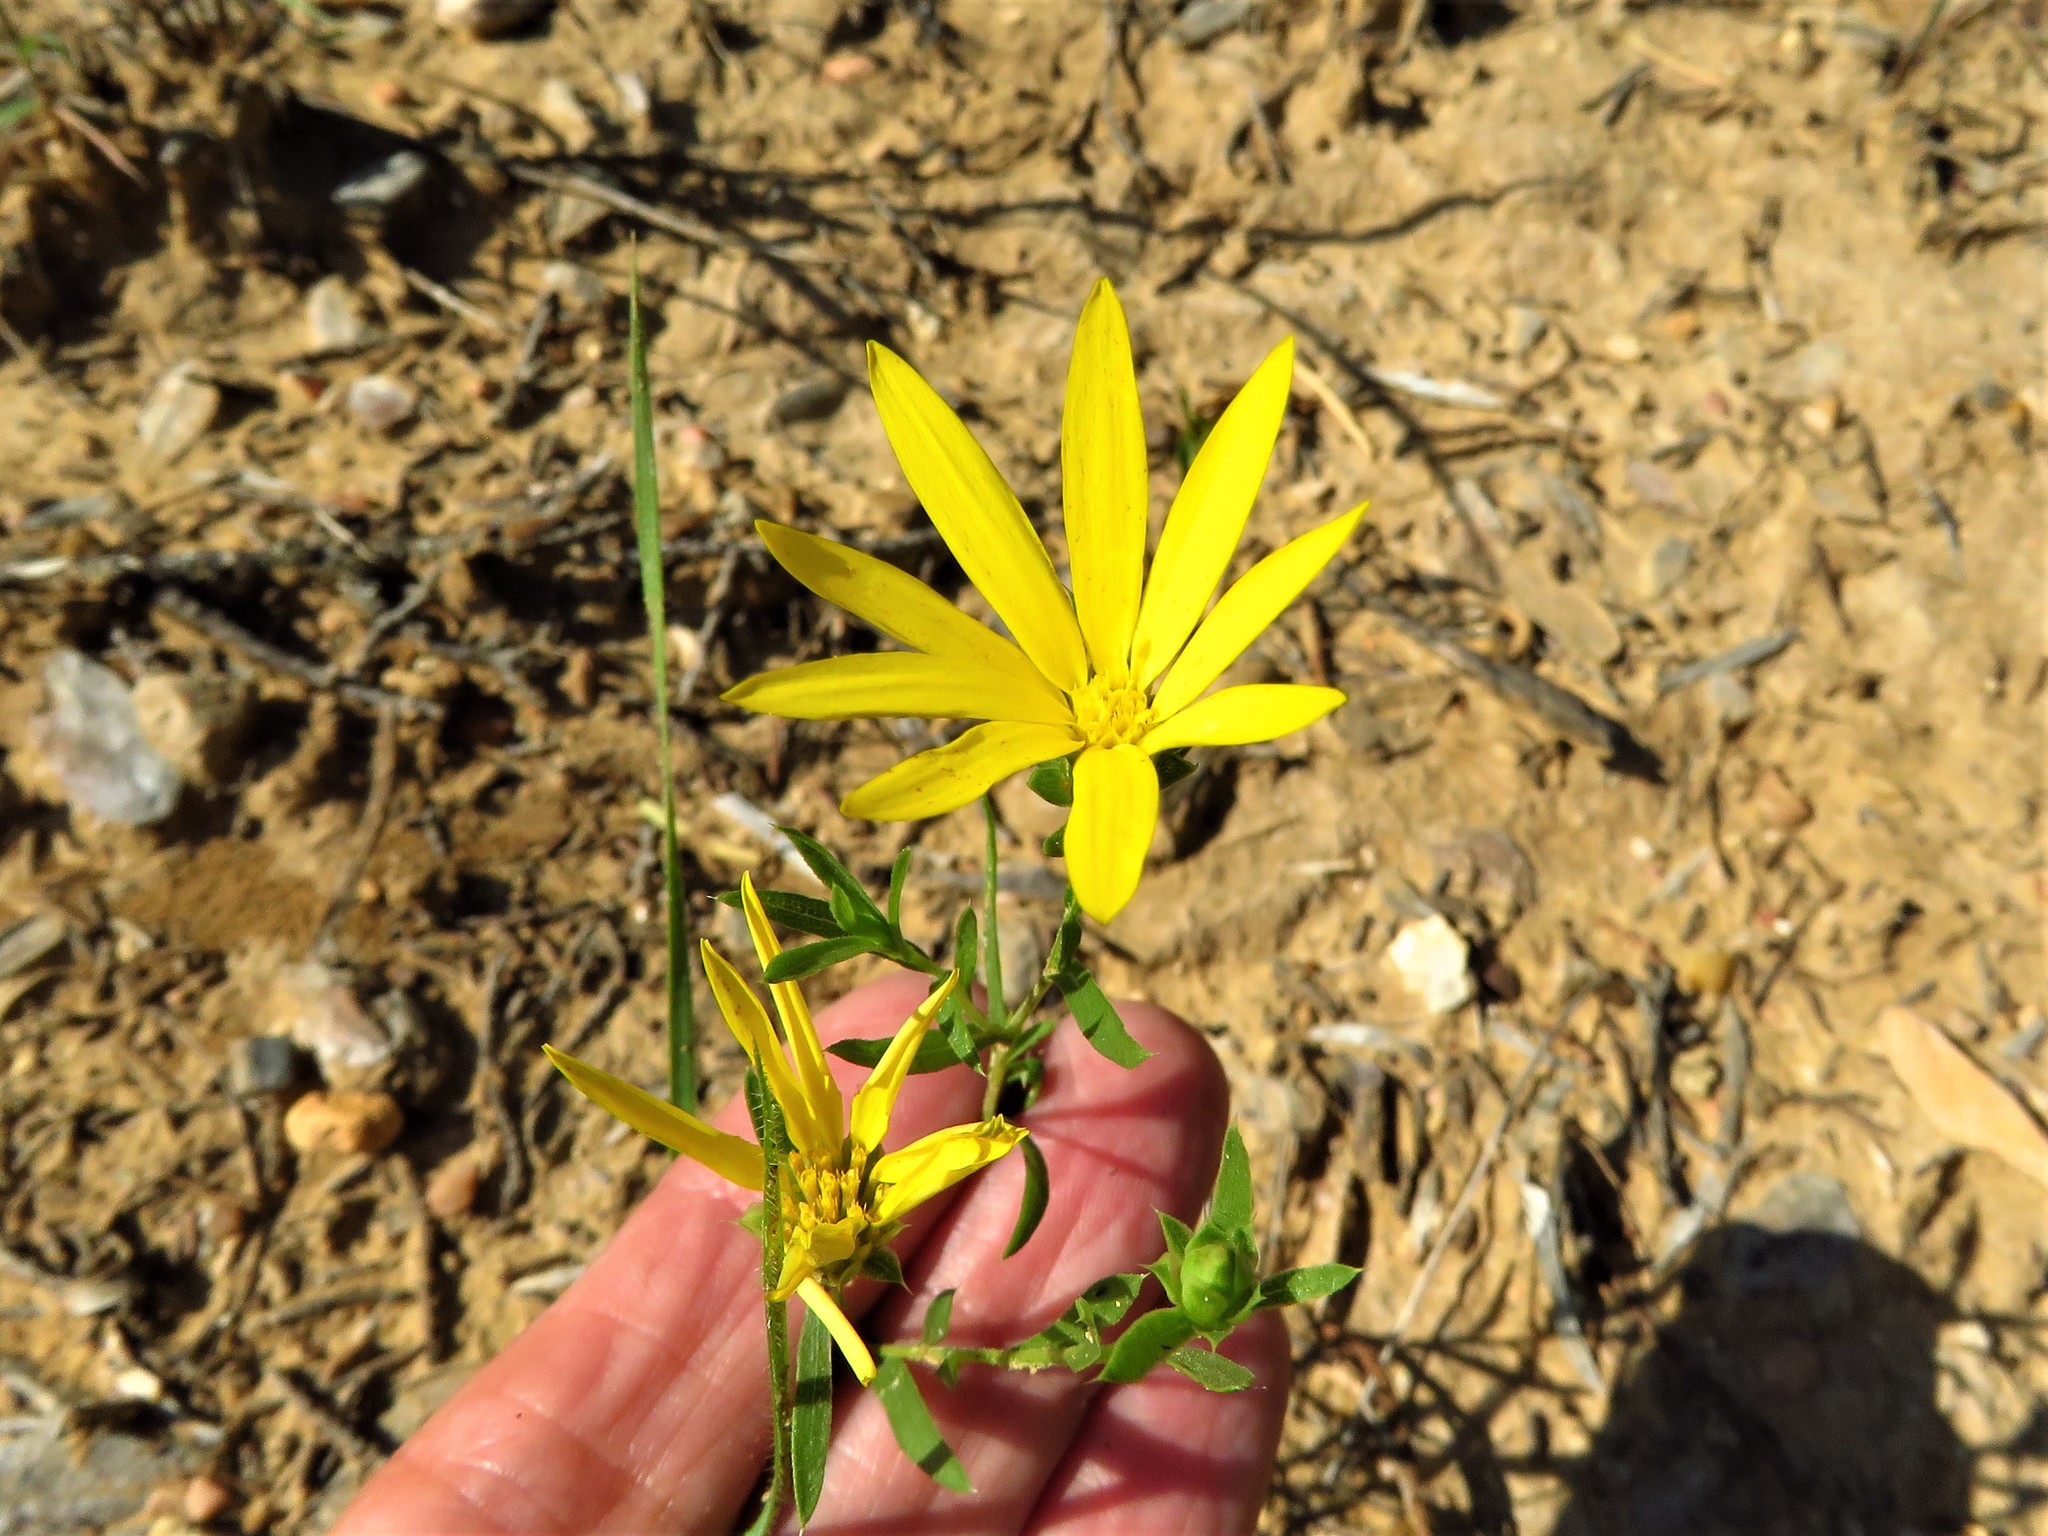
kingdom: Plantae
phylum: Tracheophyta
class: Magnoliopsida
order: Asterales
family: Asteraceae
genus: Xanthisma
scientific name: Xanthisma texanum
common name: Texas sleepy daisy
